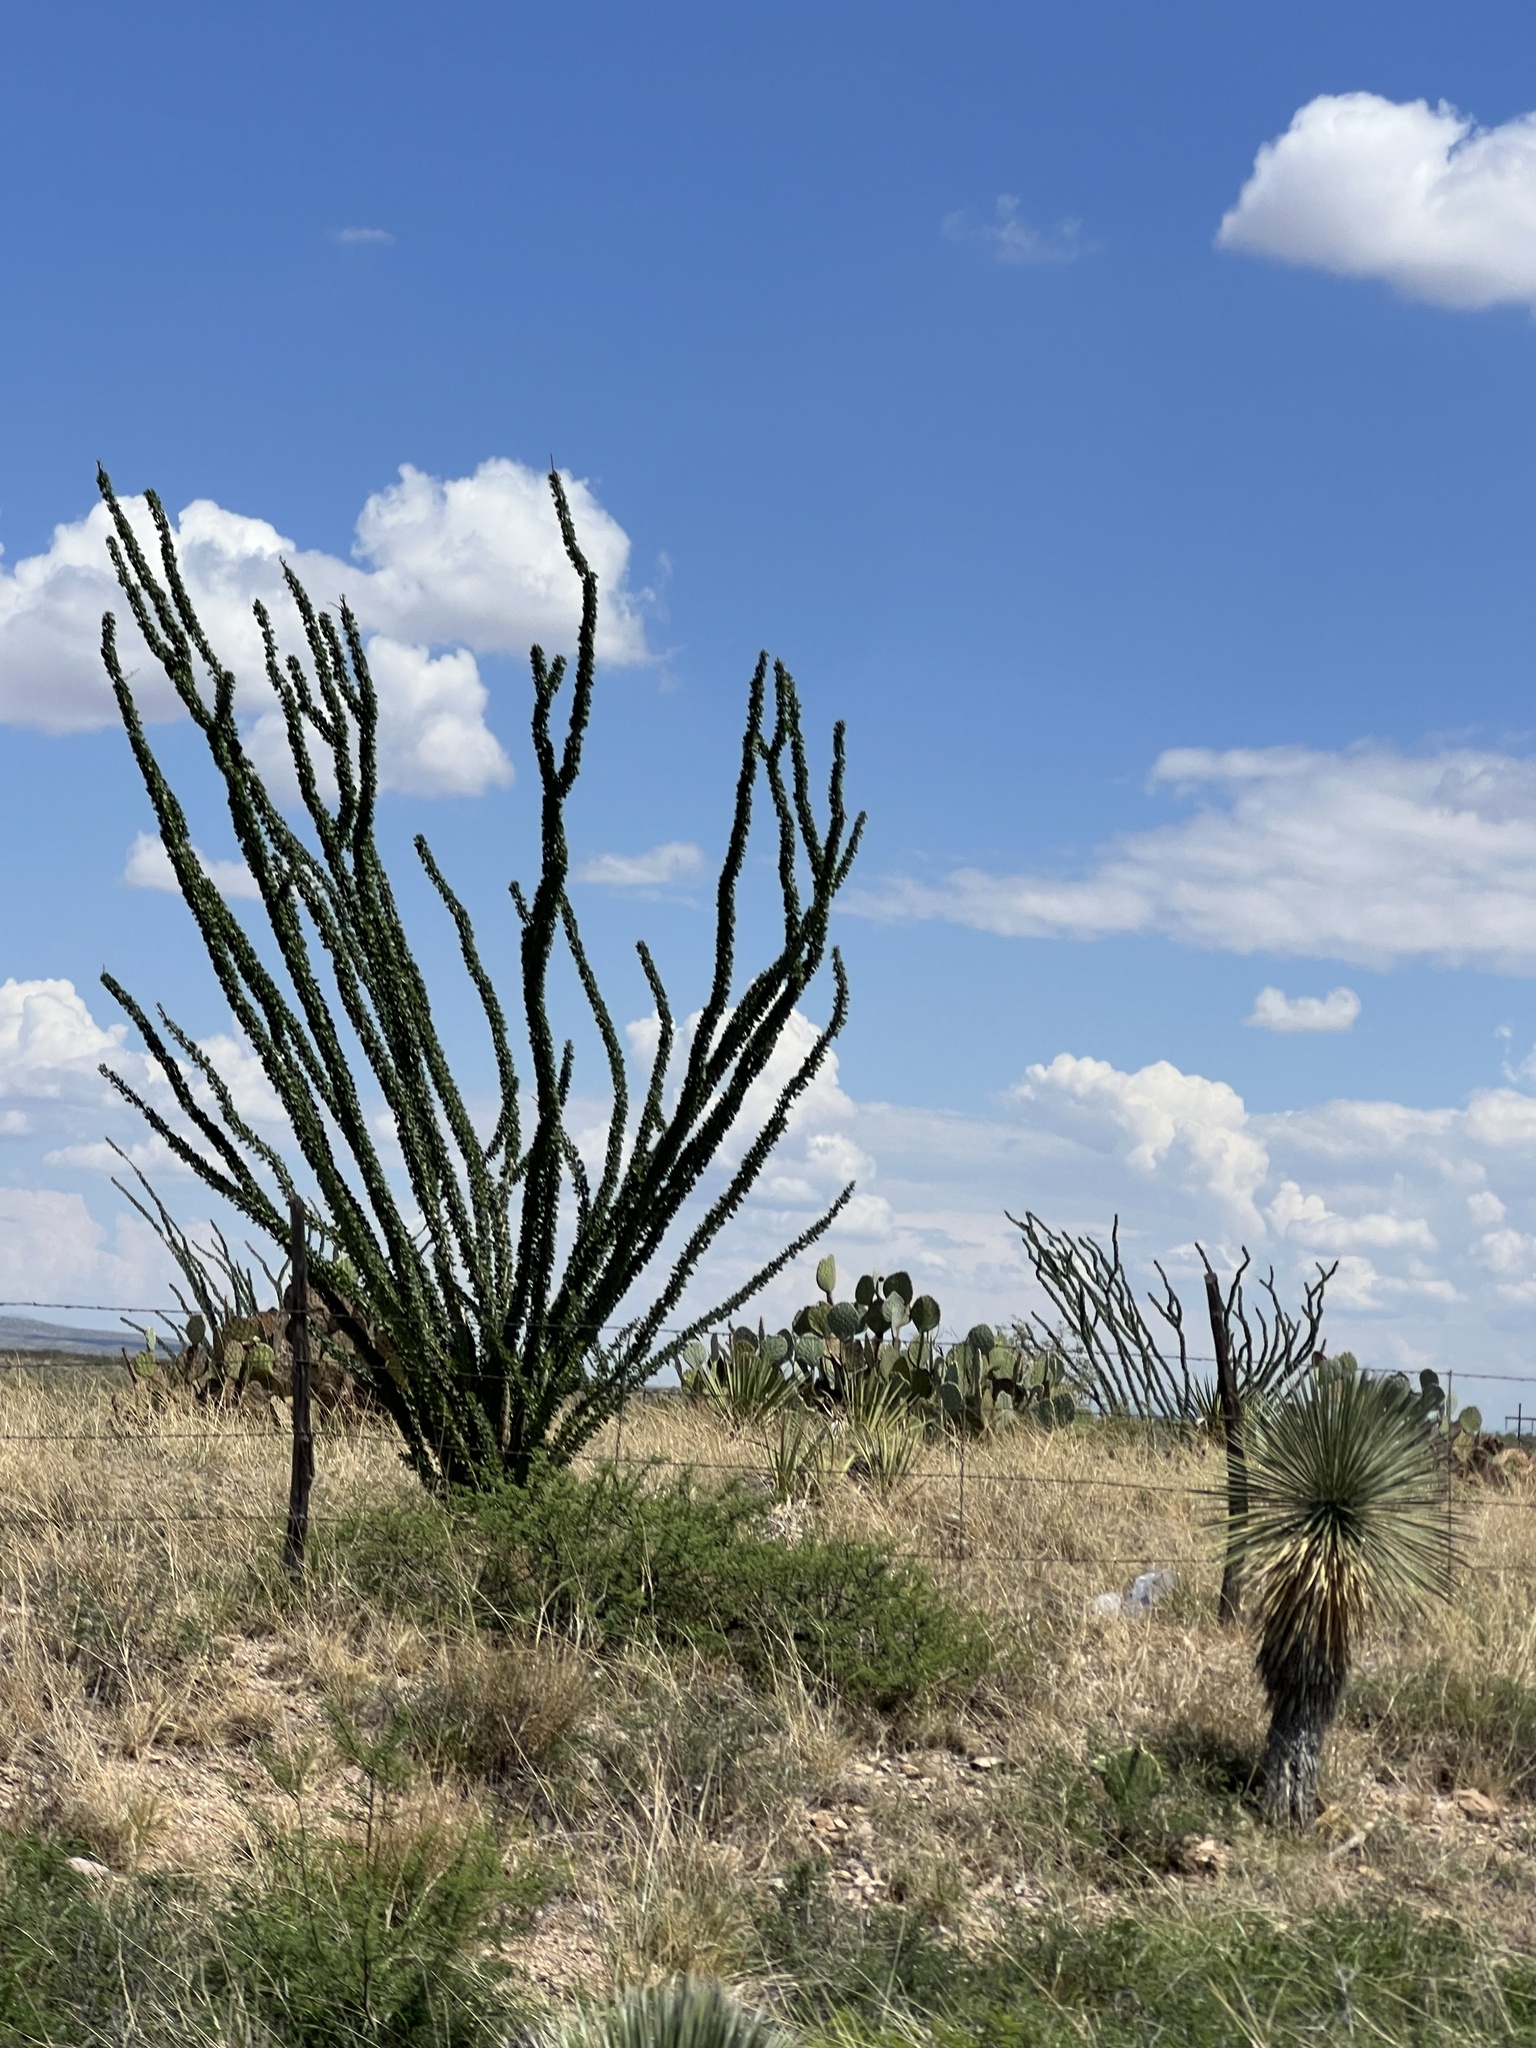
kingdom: Plantae
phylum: Tracheophyta
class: Magnoliopsida
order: Ericales
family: Fouquieriaceae
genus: Fouquieria
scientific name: Fouquieria splendens
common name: Vine-cactus
